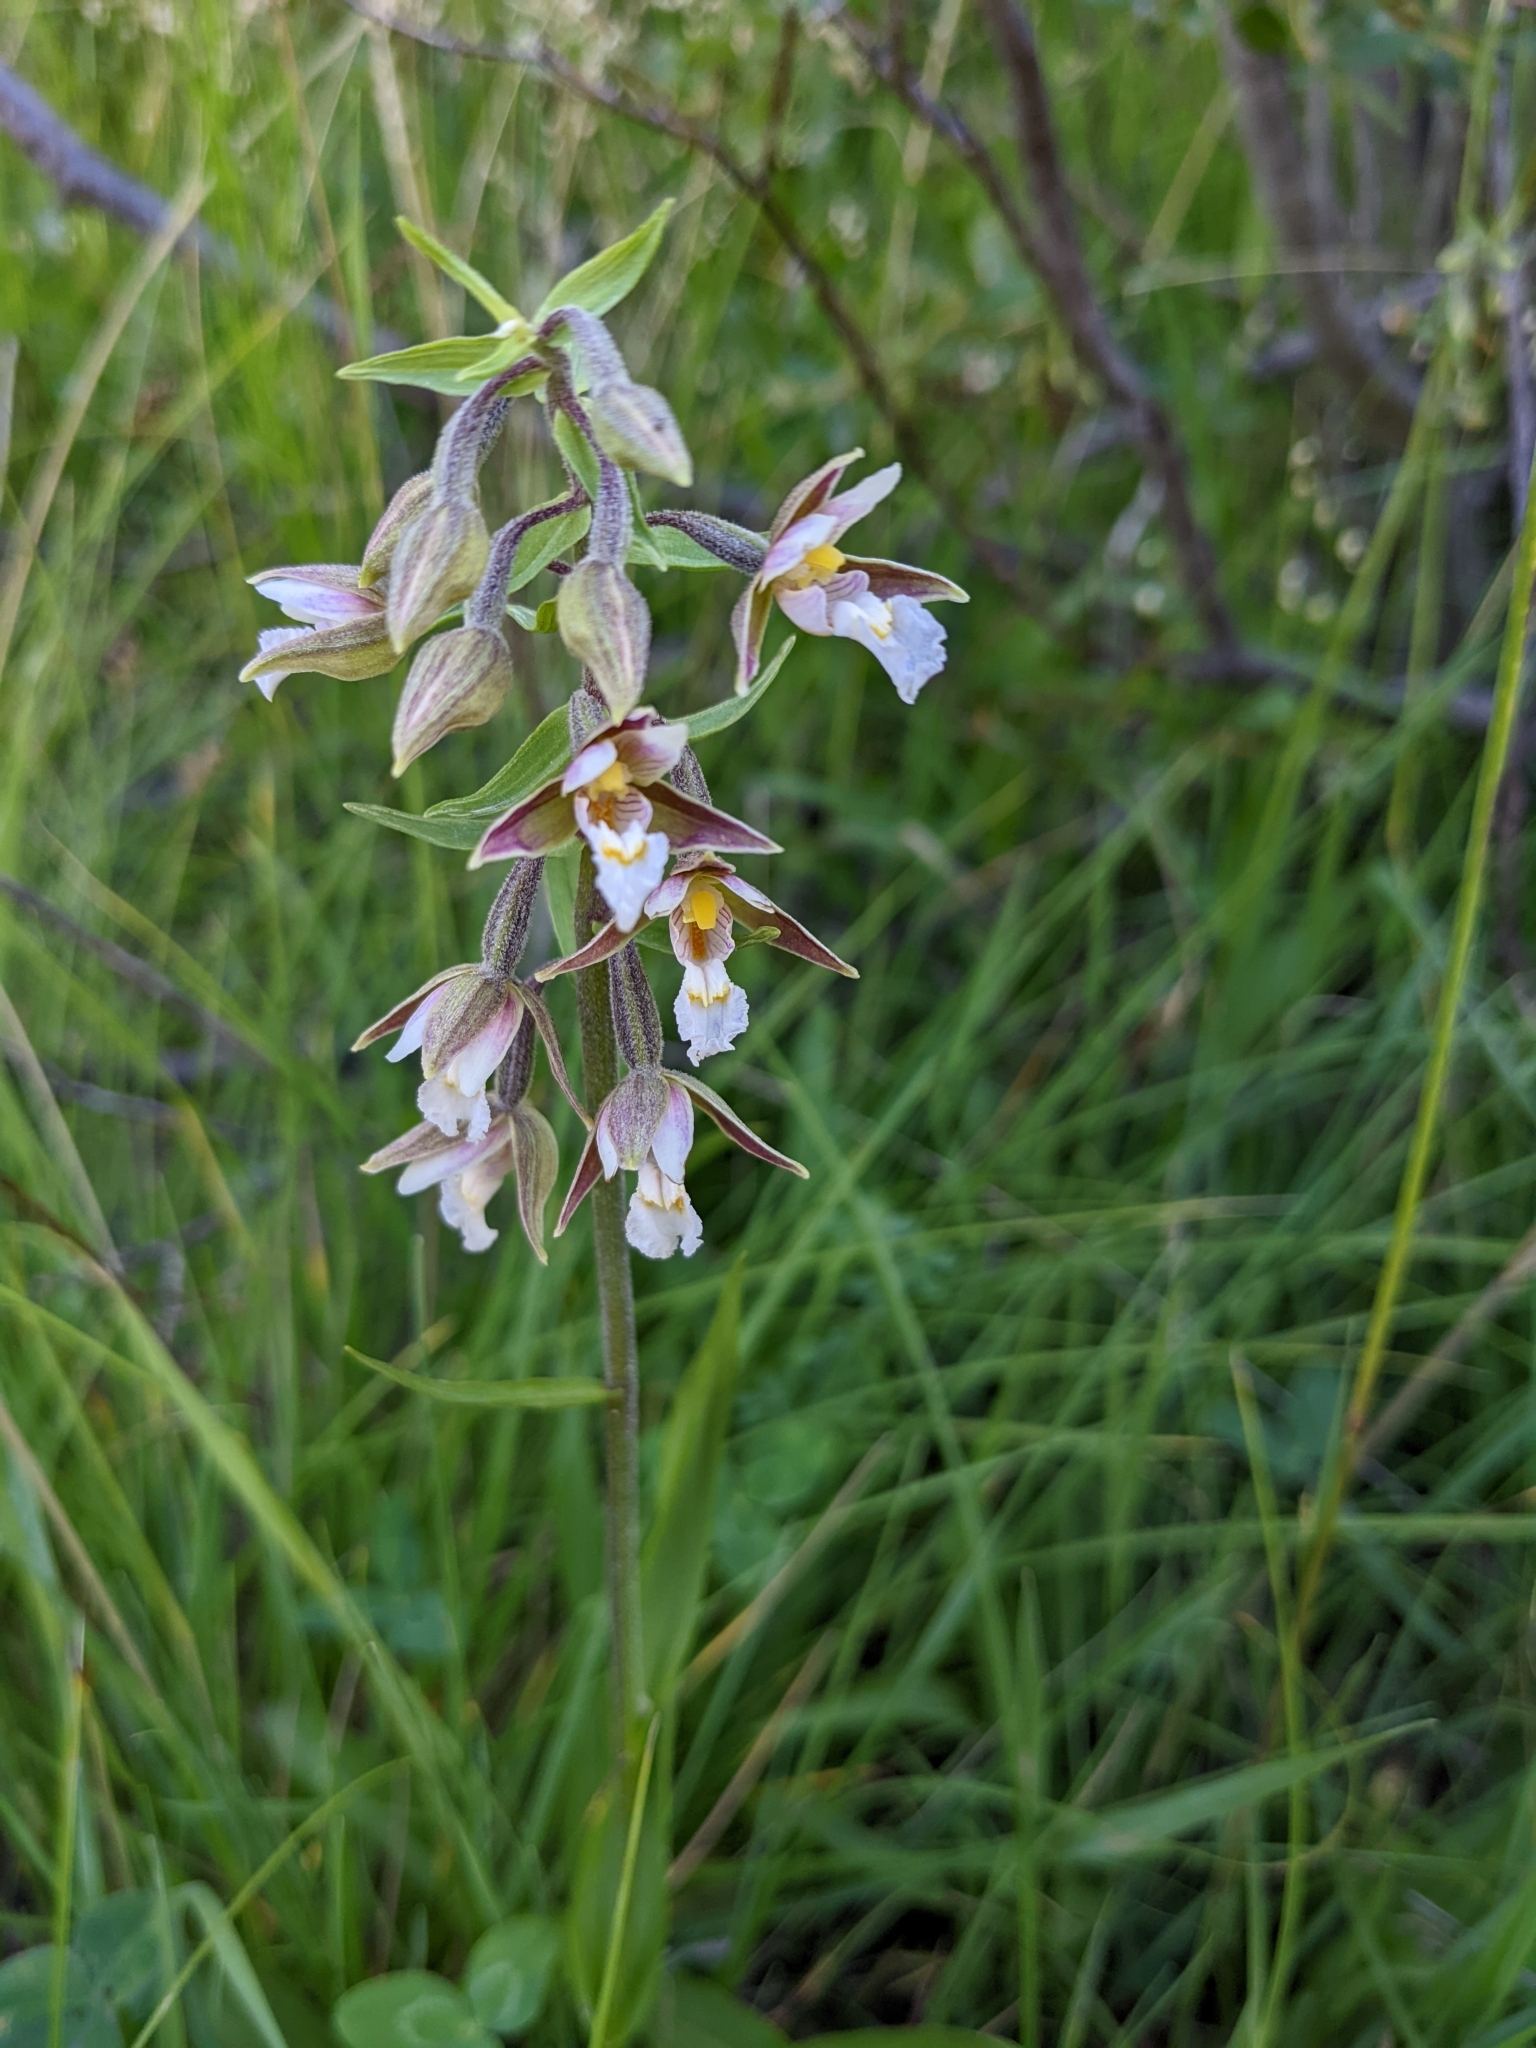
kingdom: Plantae
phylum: Tracheophyta
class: Liliopsida
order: Asparagales
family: Orchidaceae
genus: Epipactis
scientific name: Epipactis palustris
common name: Marsh helleborine
